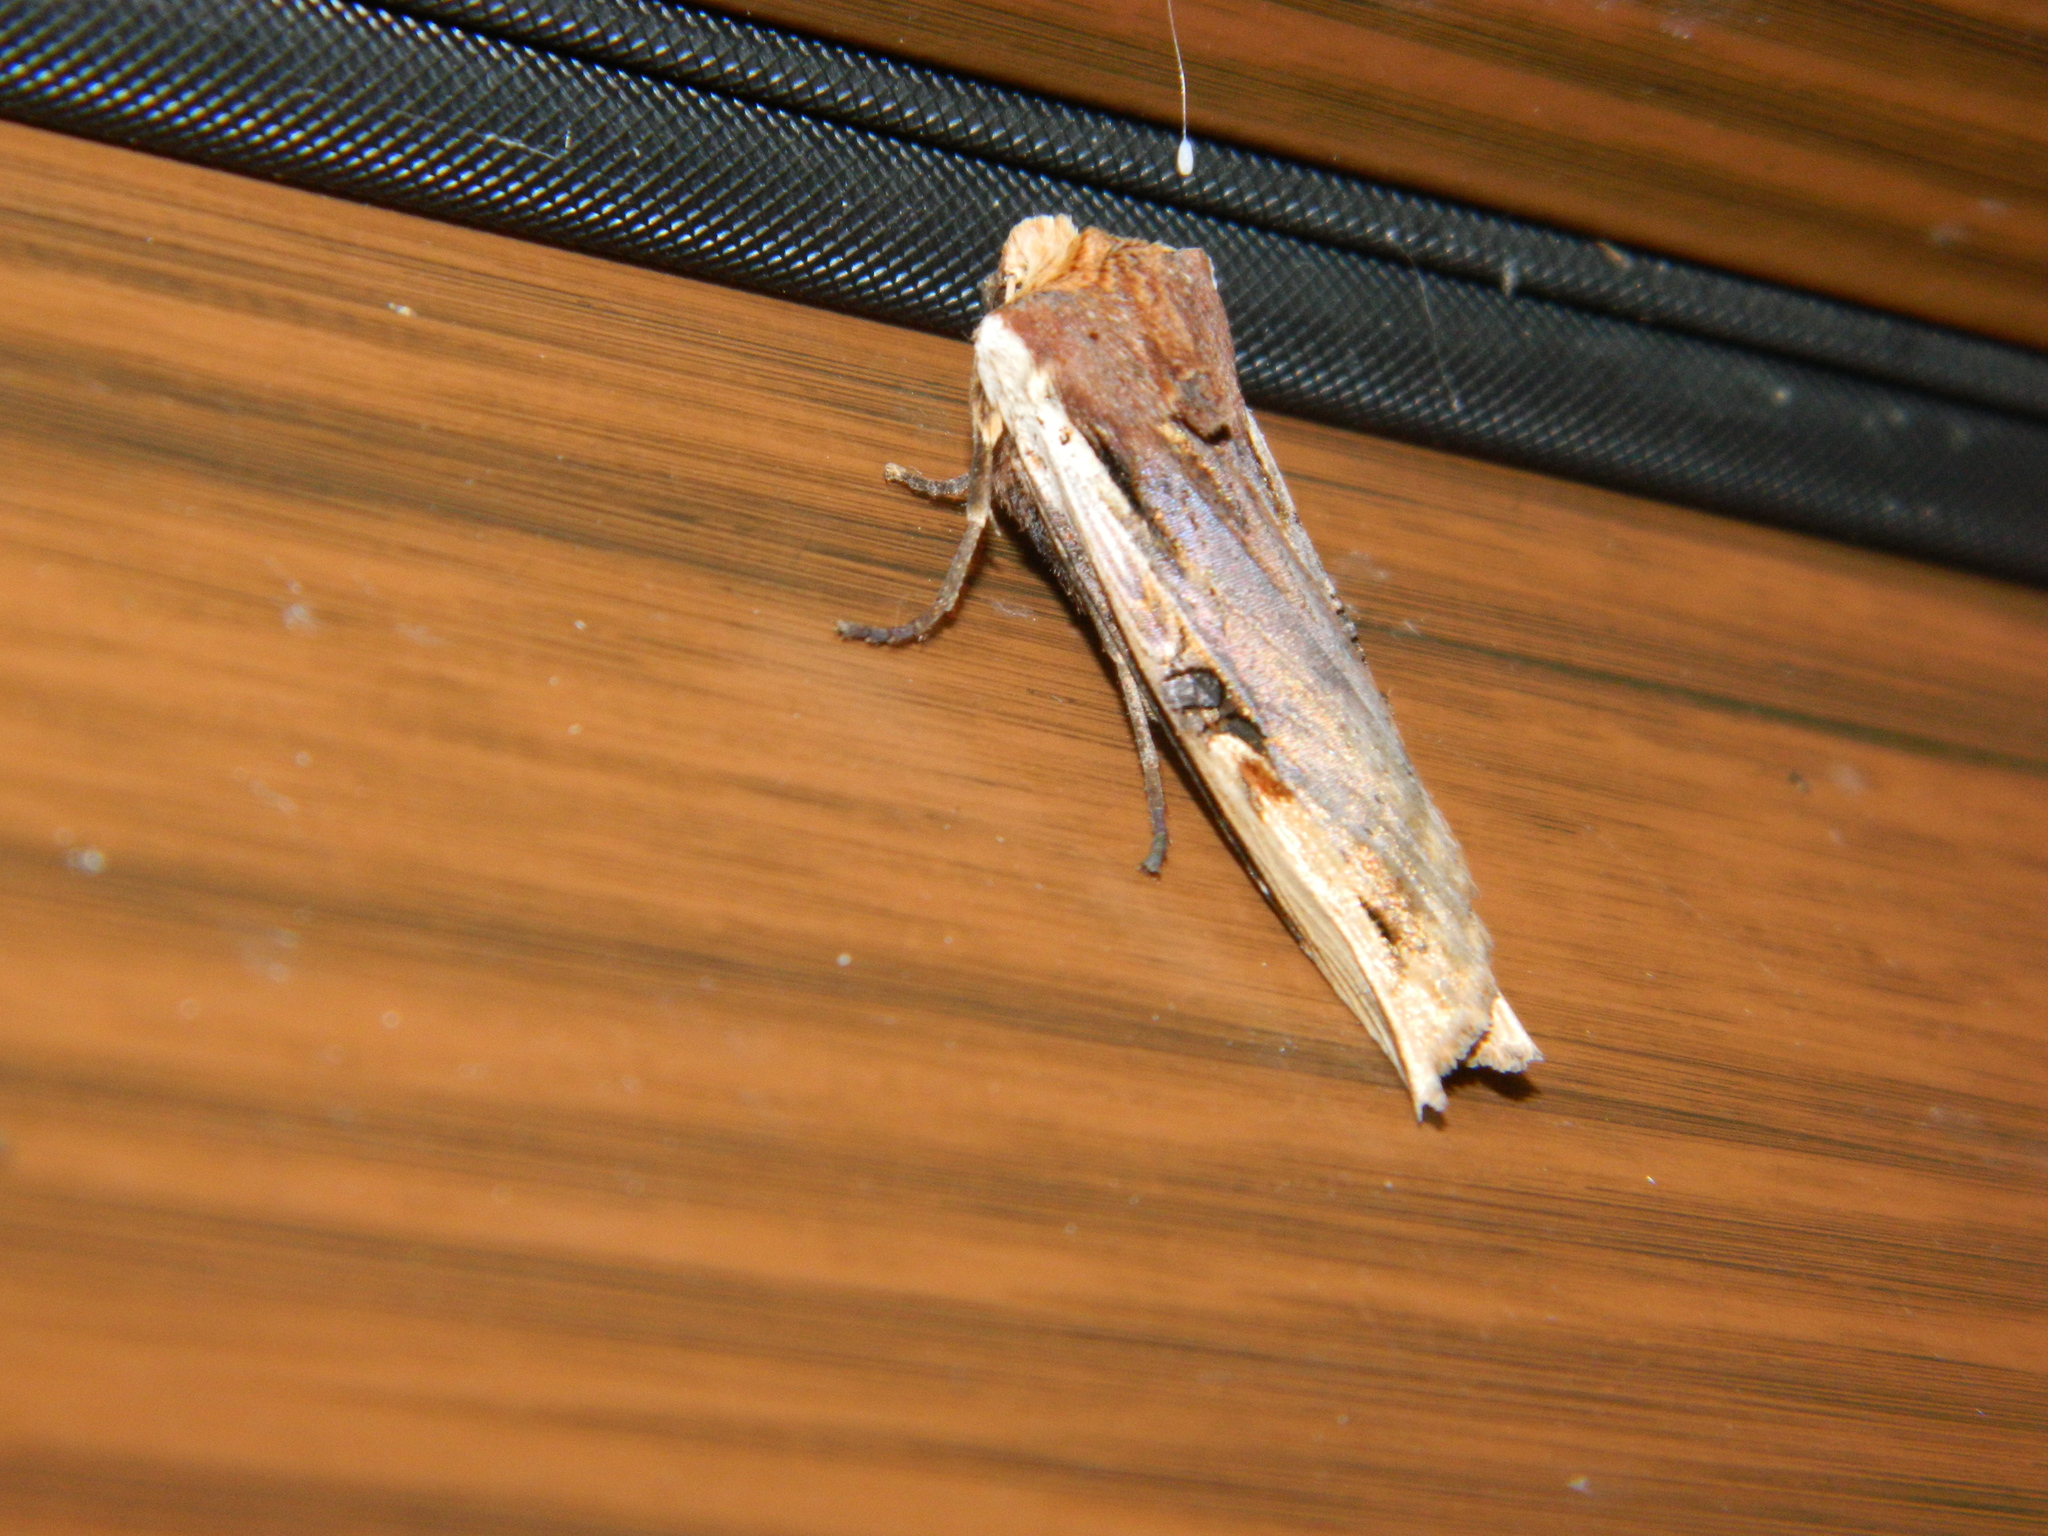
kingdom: Animalia
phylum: Arthropoda
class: Insecta
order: Lepidoptera
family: Noctuidae
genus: Xylena
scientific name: Xylena curvimacula
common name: Dot-and-dash swordgrass moth
